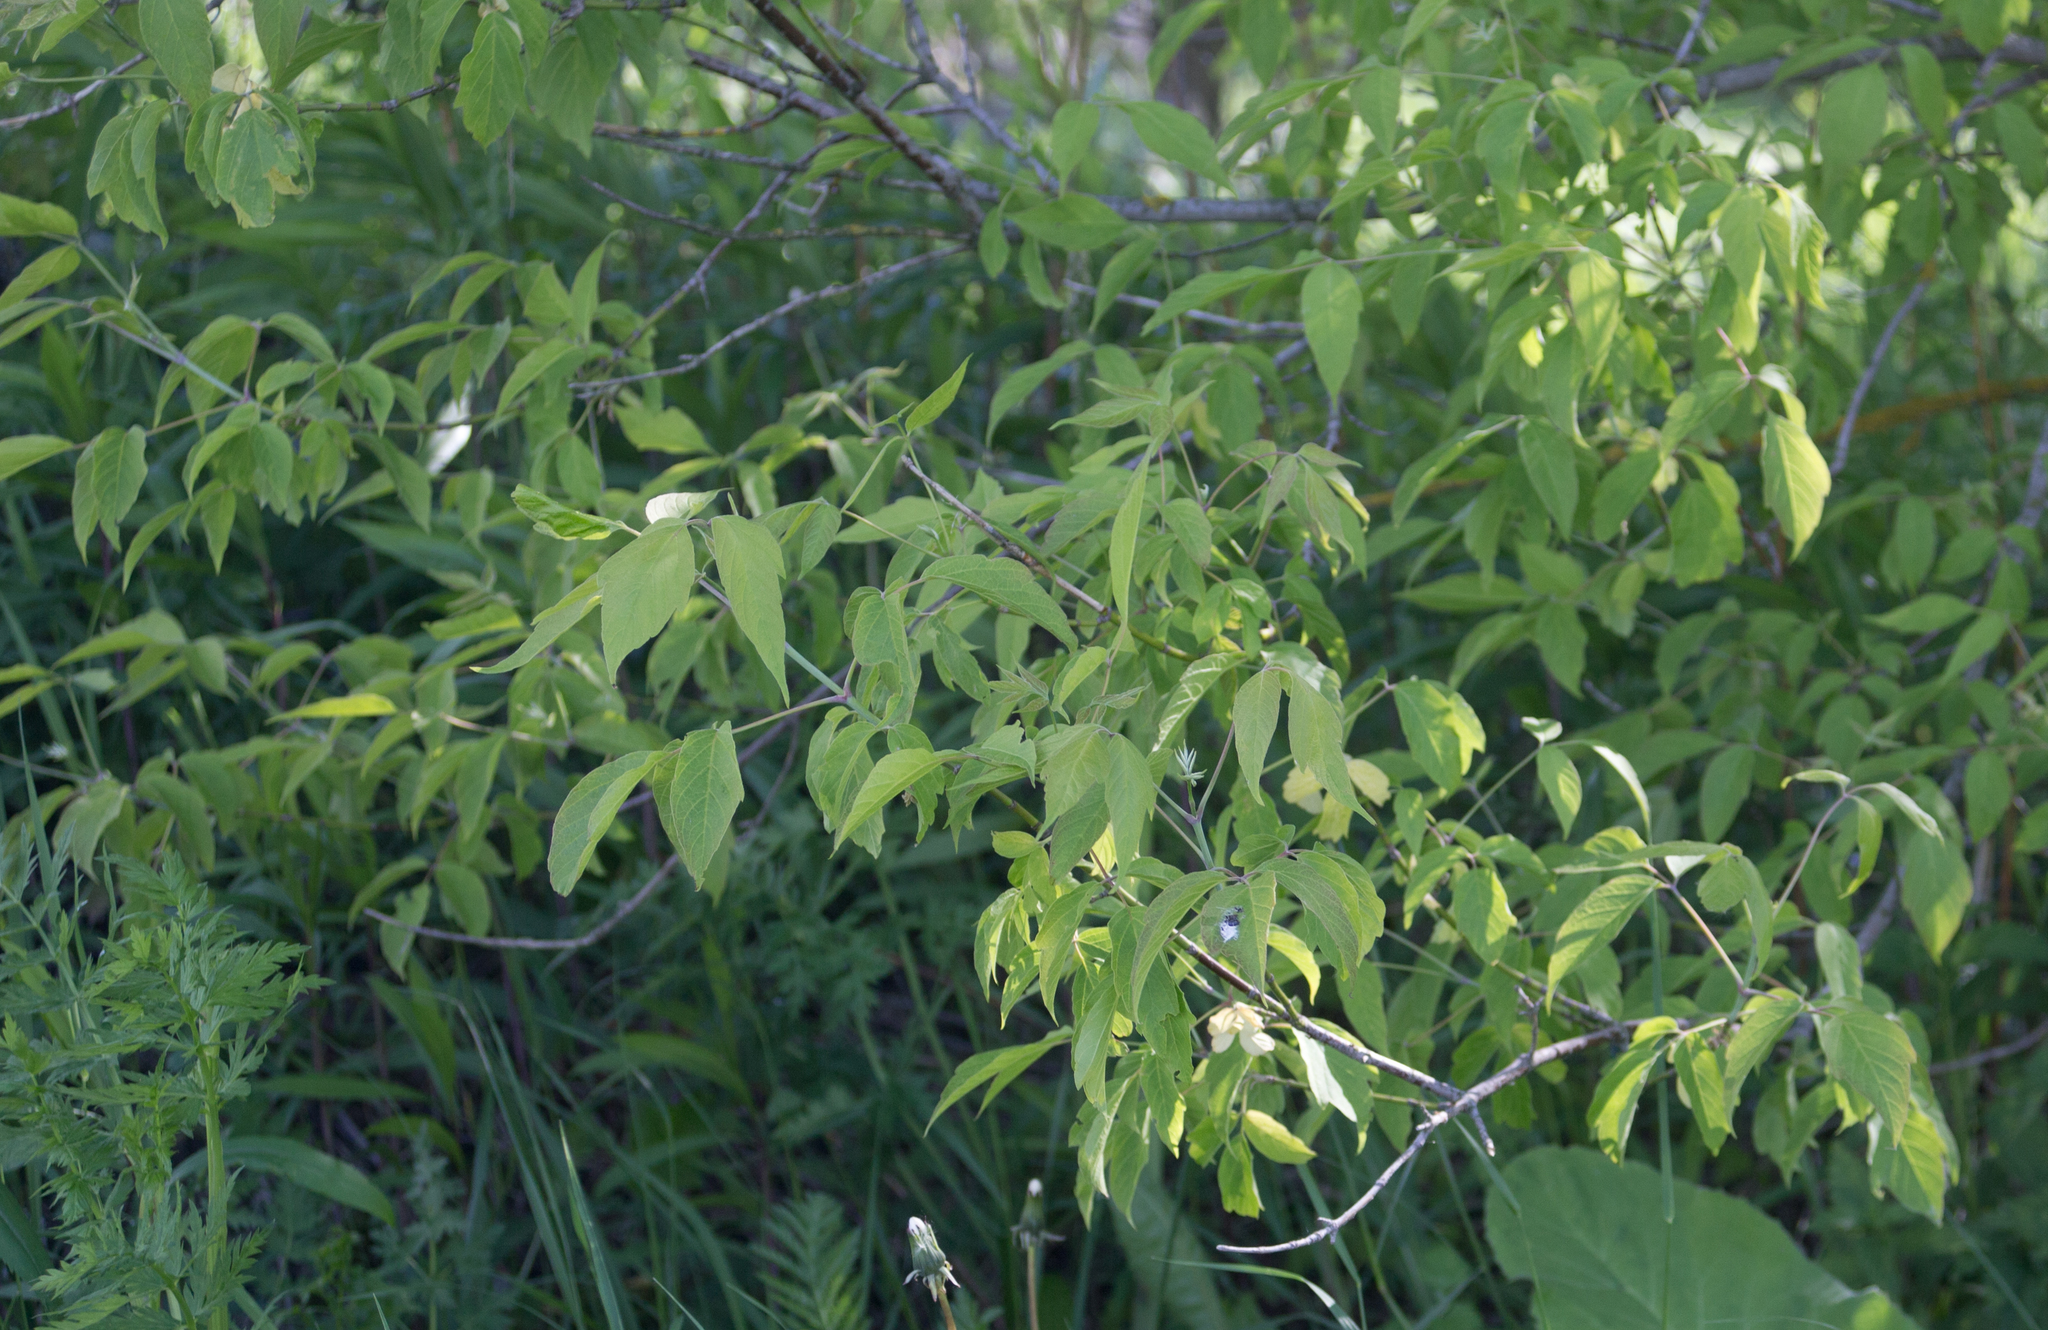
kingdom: Plantae
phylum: Tracheophyta
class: Magnoliopsida
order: Sapindales
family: Sapindaceae
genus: Acer
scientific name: Acer negundo
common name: Ashleaf maple
